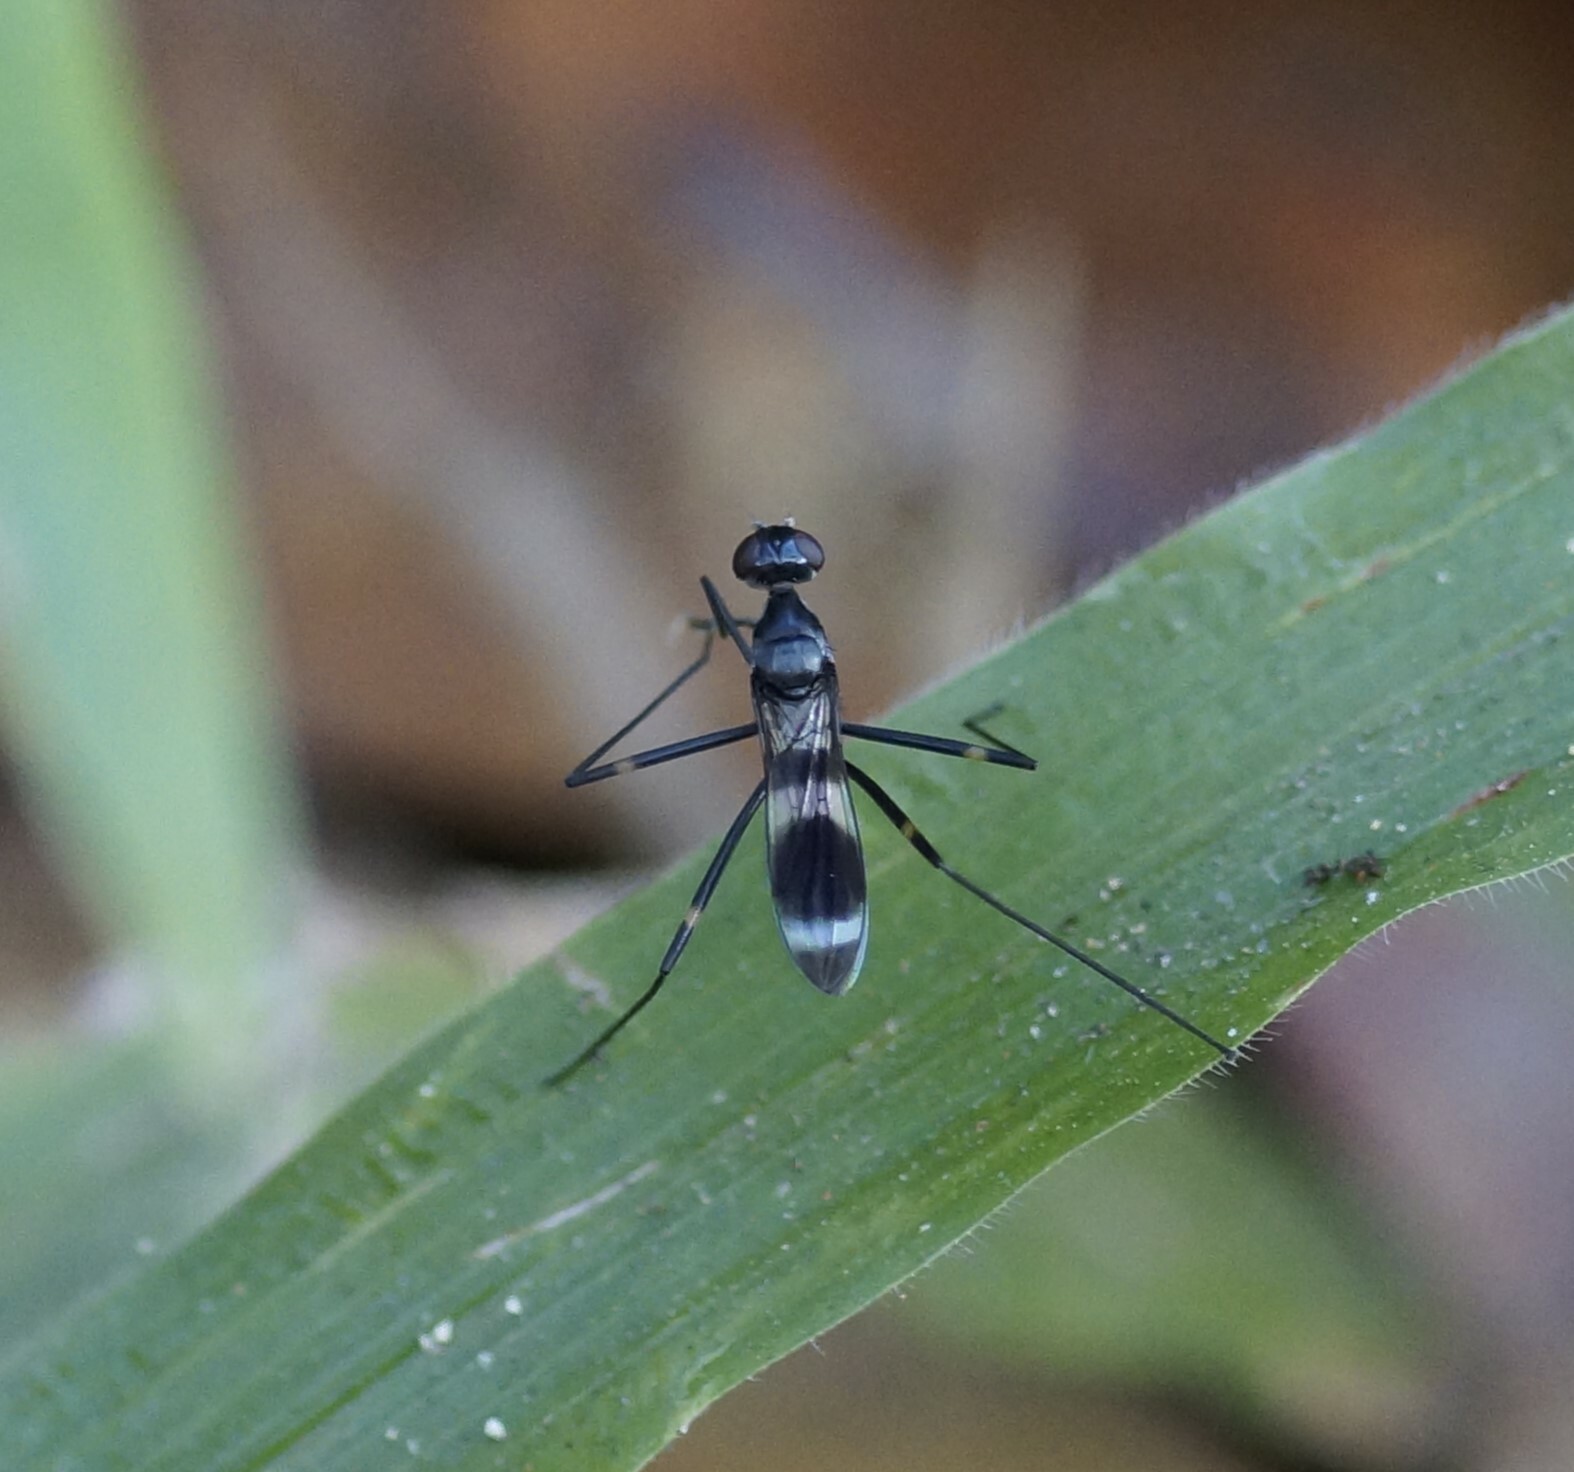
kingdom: Animalia
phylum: Arthropoda
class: Insecta
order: Diptera
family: Micropezidae
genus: Mimegralla
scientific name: Mimegralla australica
